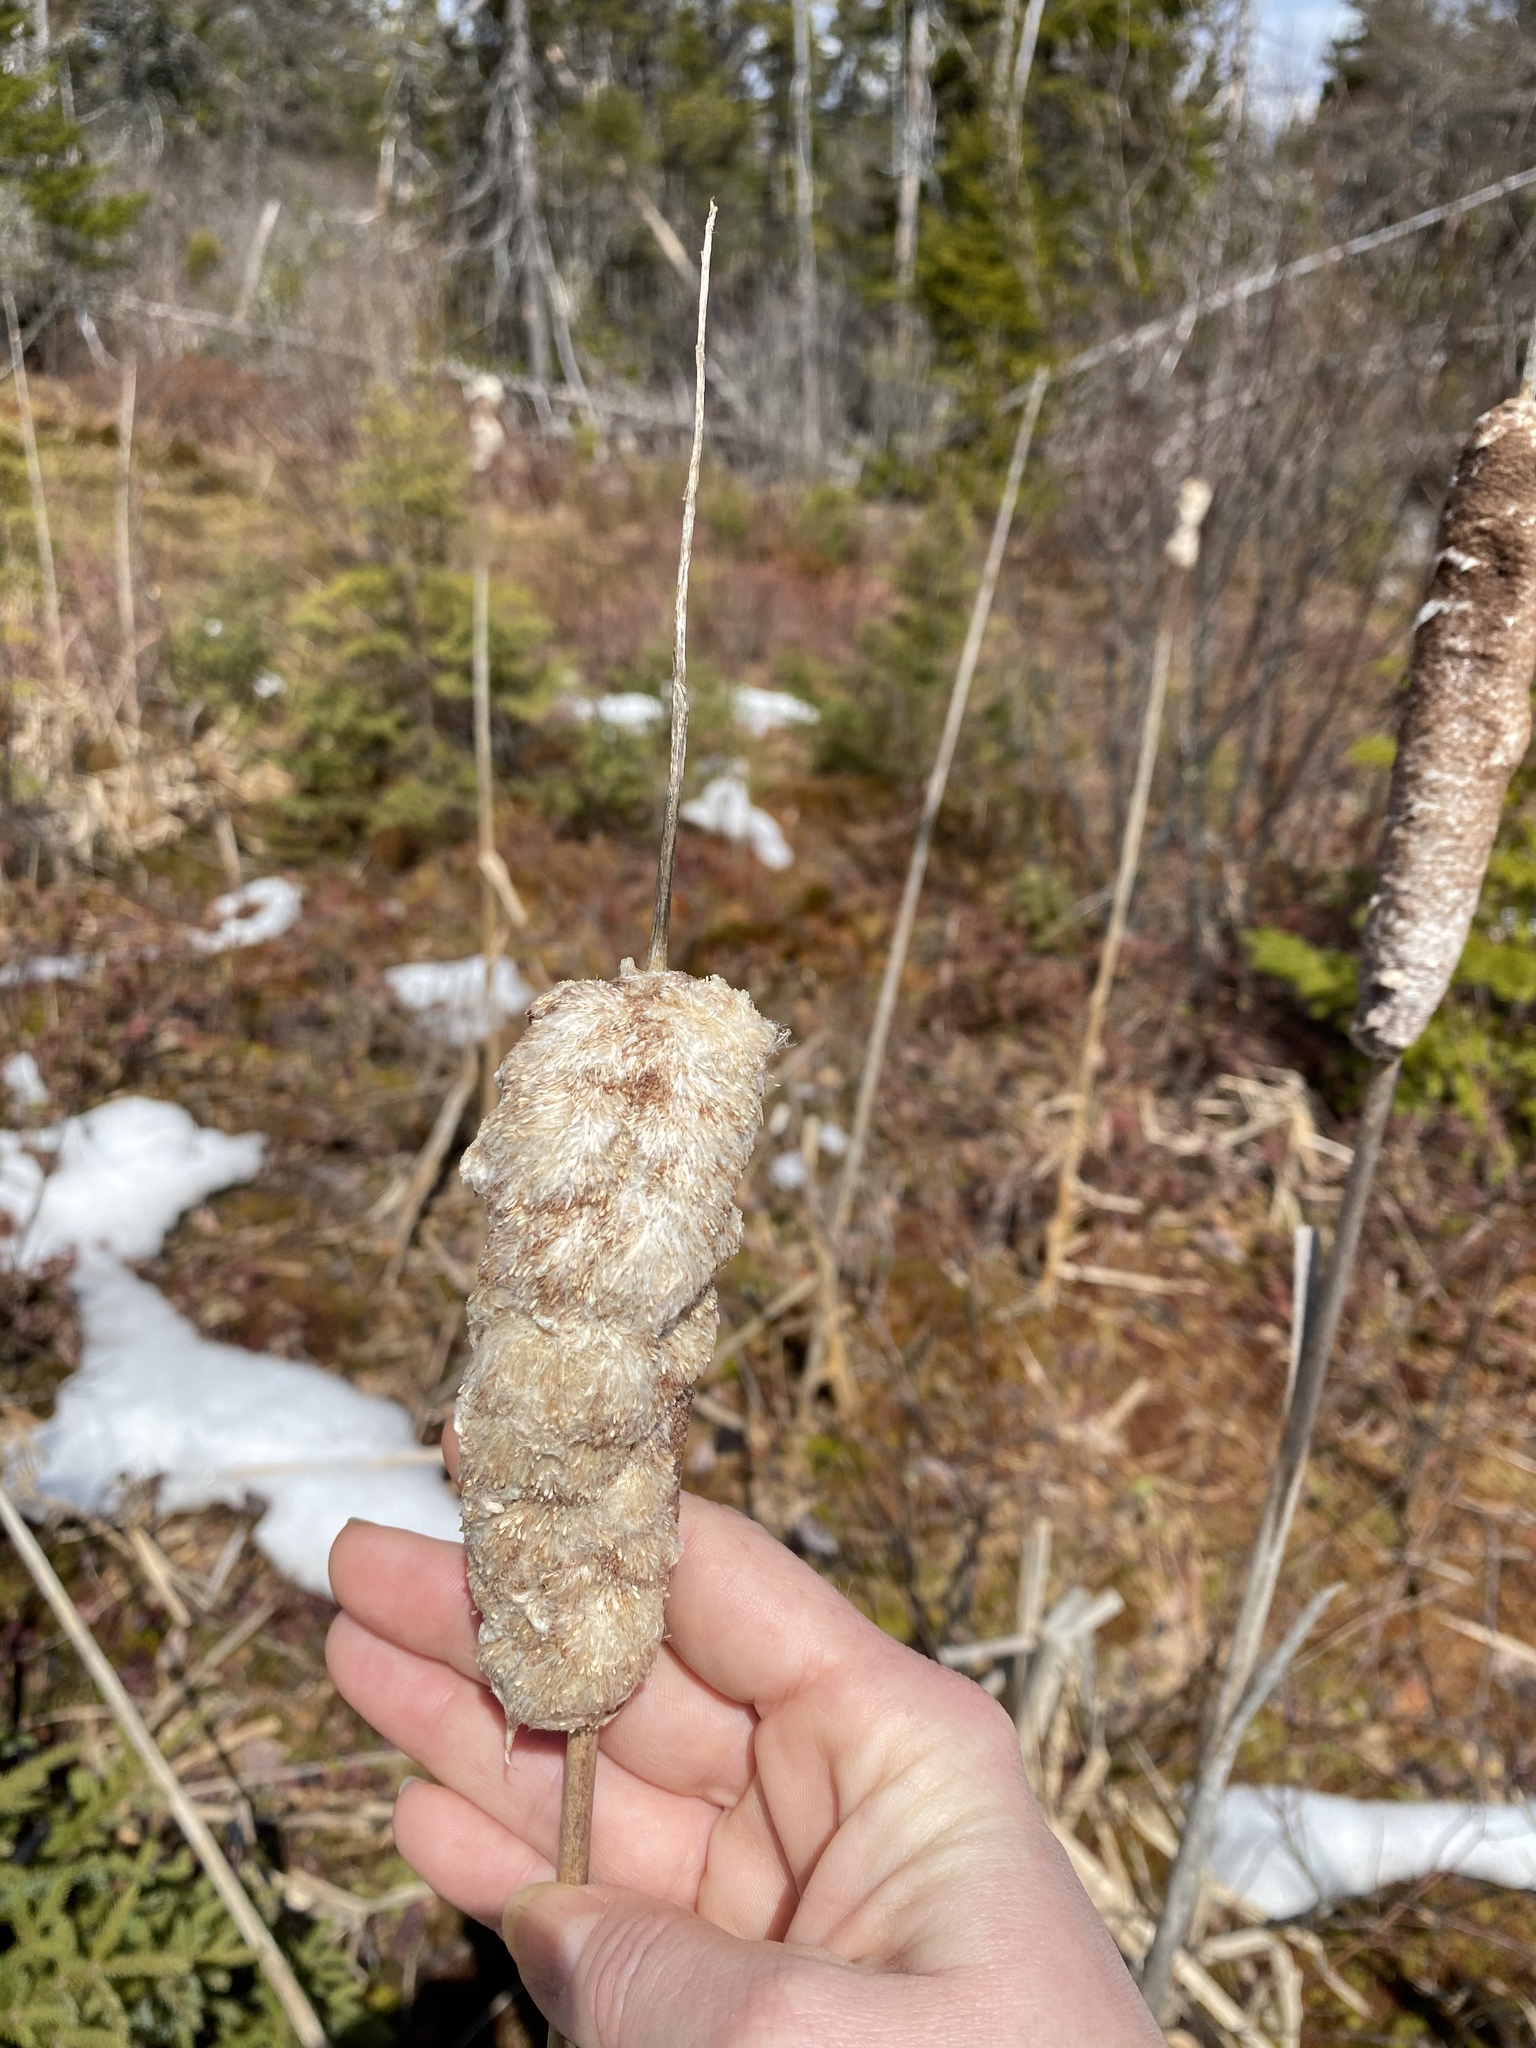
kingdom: Plantae
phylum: Tracheophyta
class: Liliopsida
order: Poales
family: Typhaceae
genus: Typha
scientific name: Typha latifolia
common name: Broadleaf cattail
